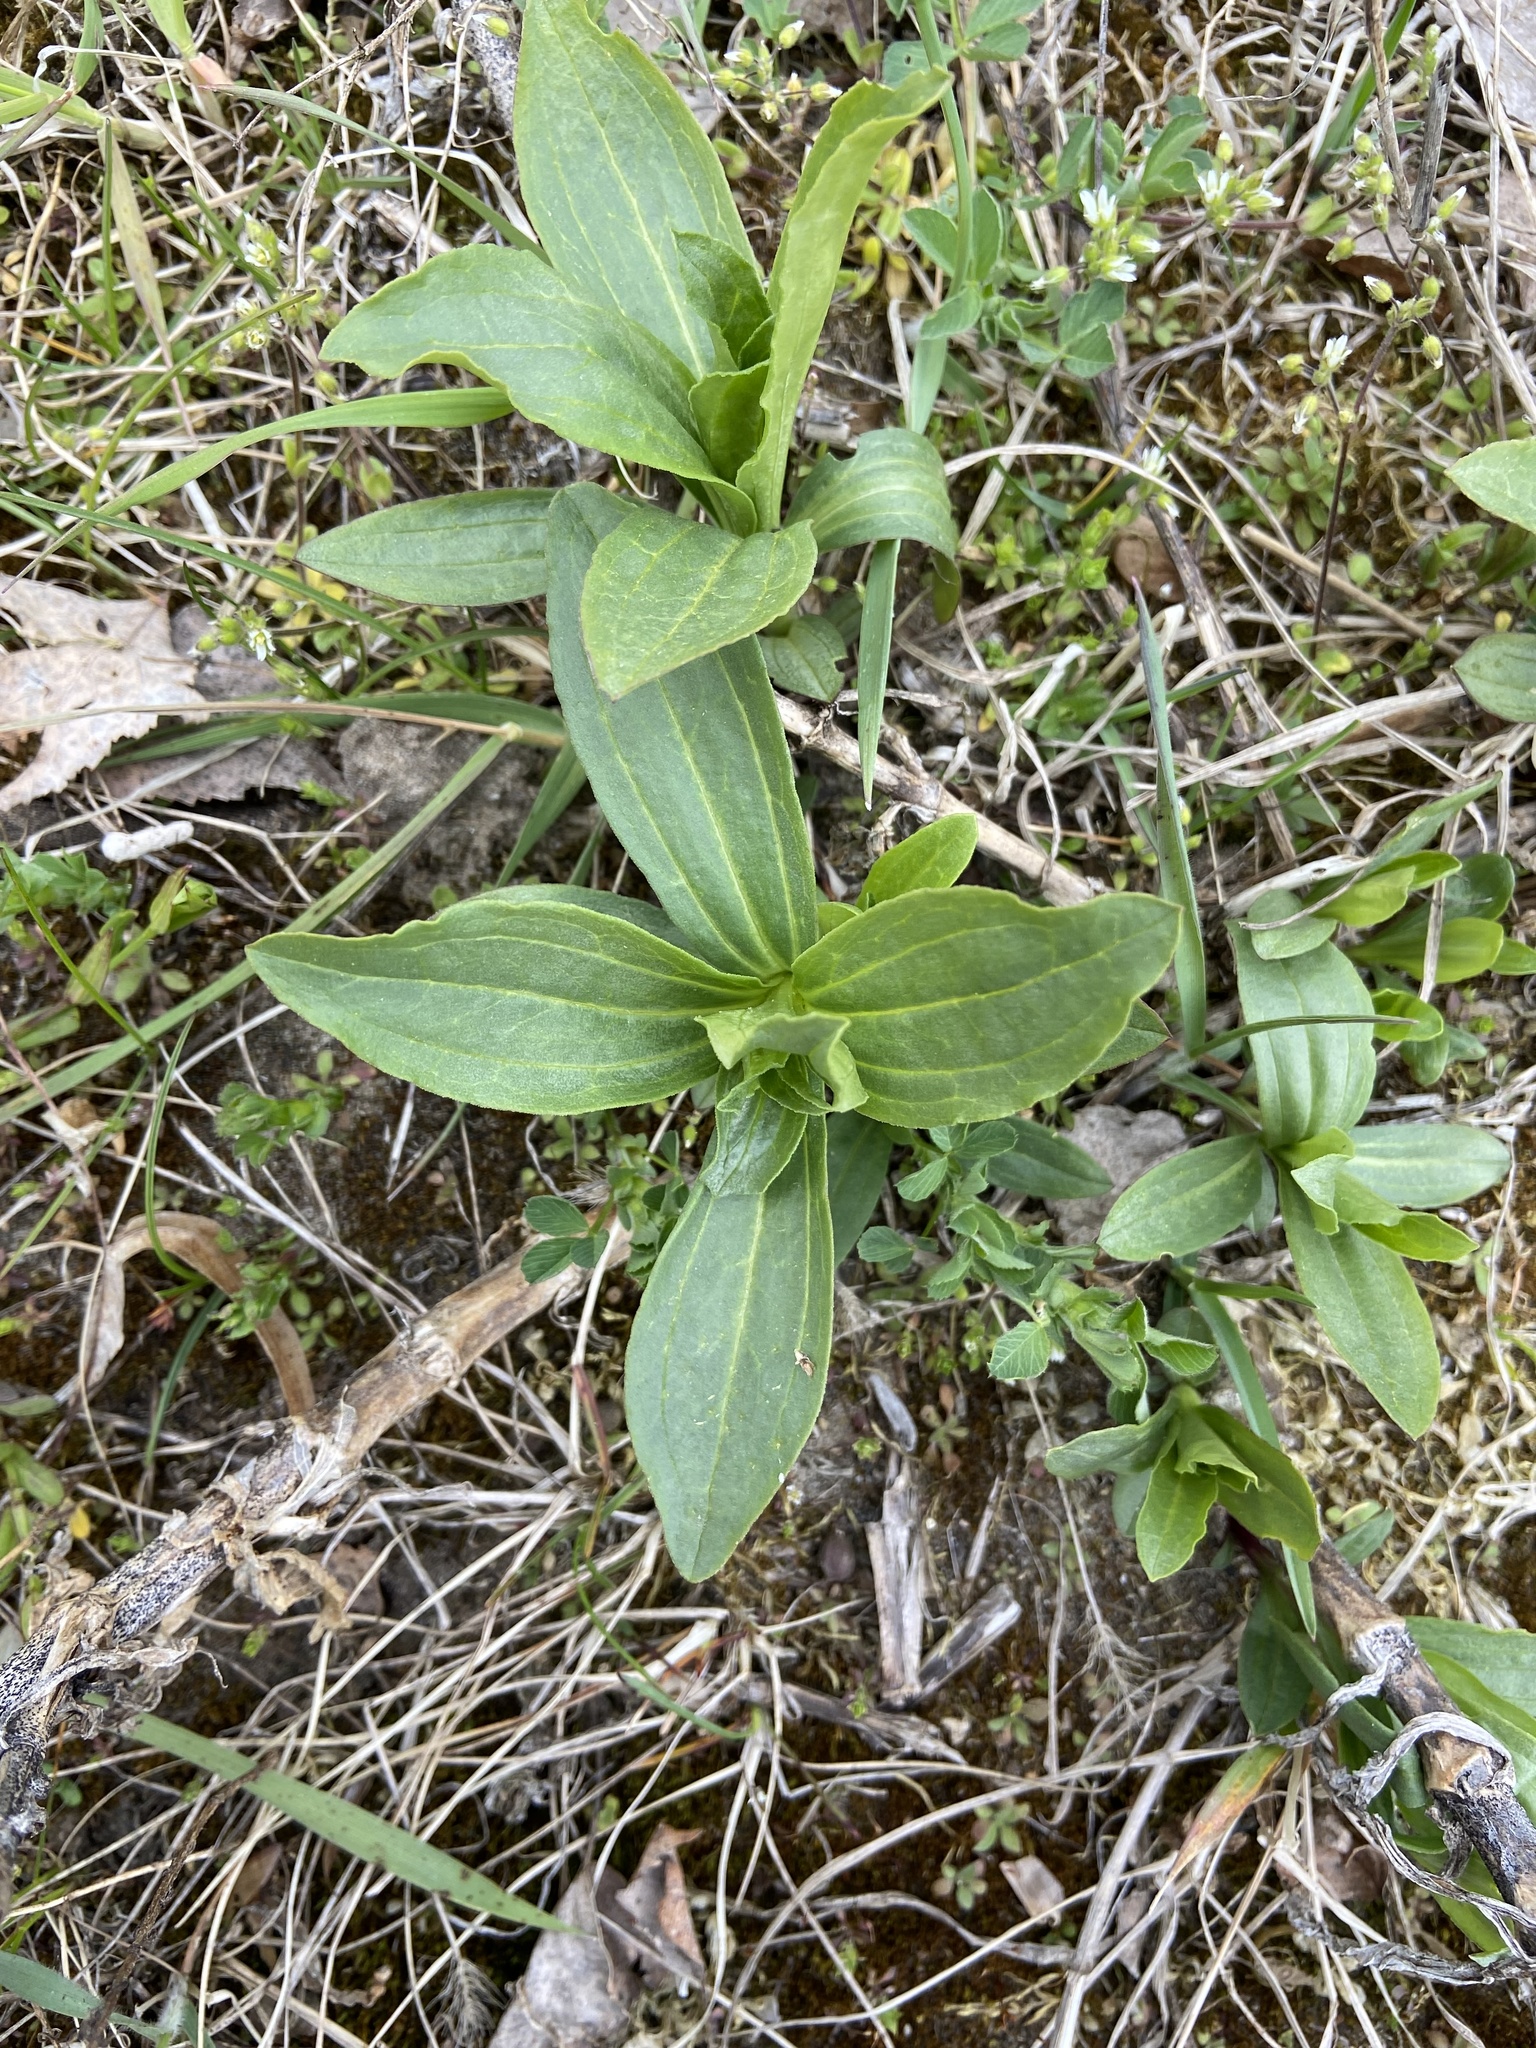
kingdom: Plantae
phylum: Tracheophyta
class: Magnoliopsida
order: Caryophyllales
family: Caryophyllaceae
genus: Saponaria
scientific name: Saponaria officinalis
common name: Soapwort
